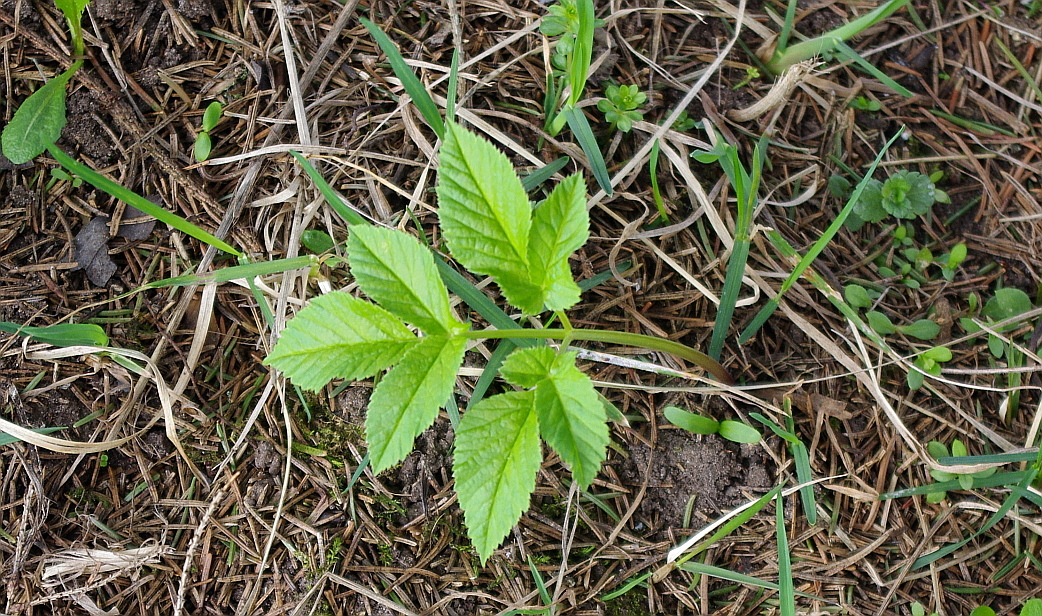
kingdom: Plantae
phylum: Tracheophyta
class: Magnoliopsida
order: Apiales
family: Apiaceae
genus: Aegopodium
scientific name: Aegopodium podagraria
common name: Ground-elder
